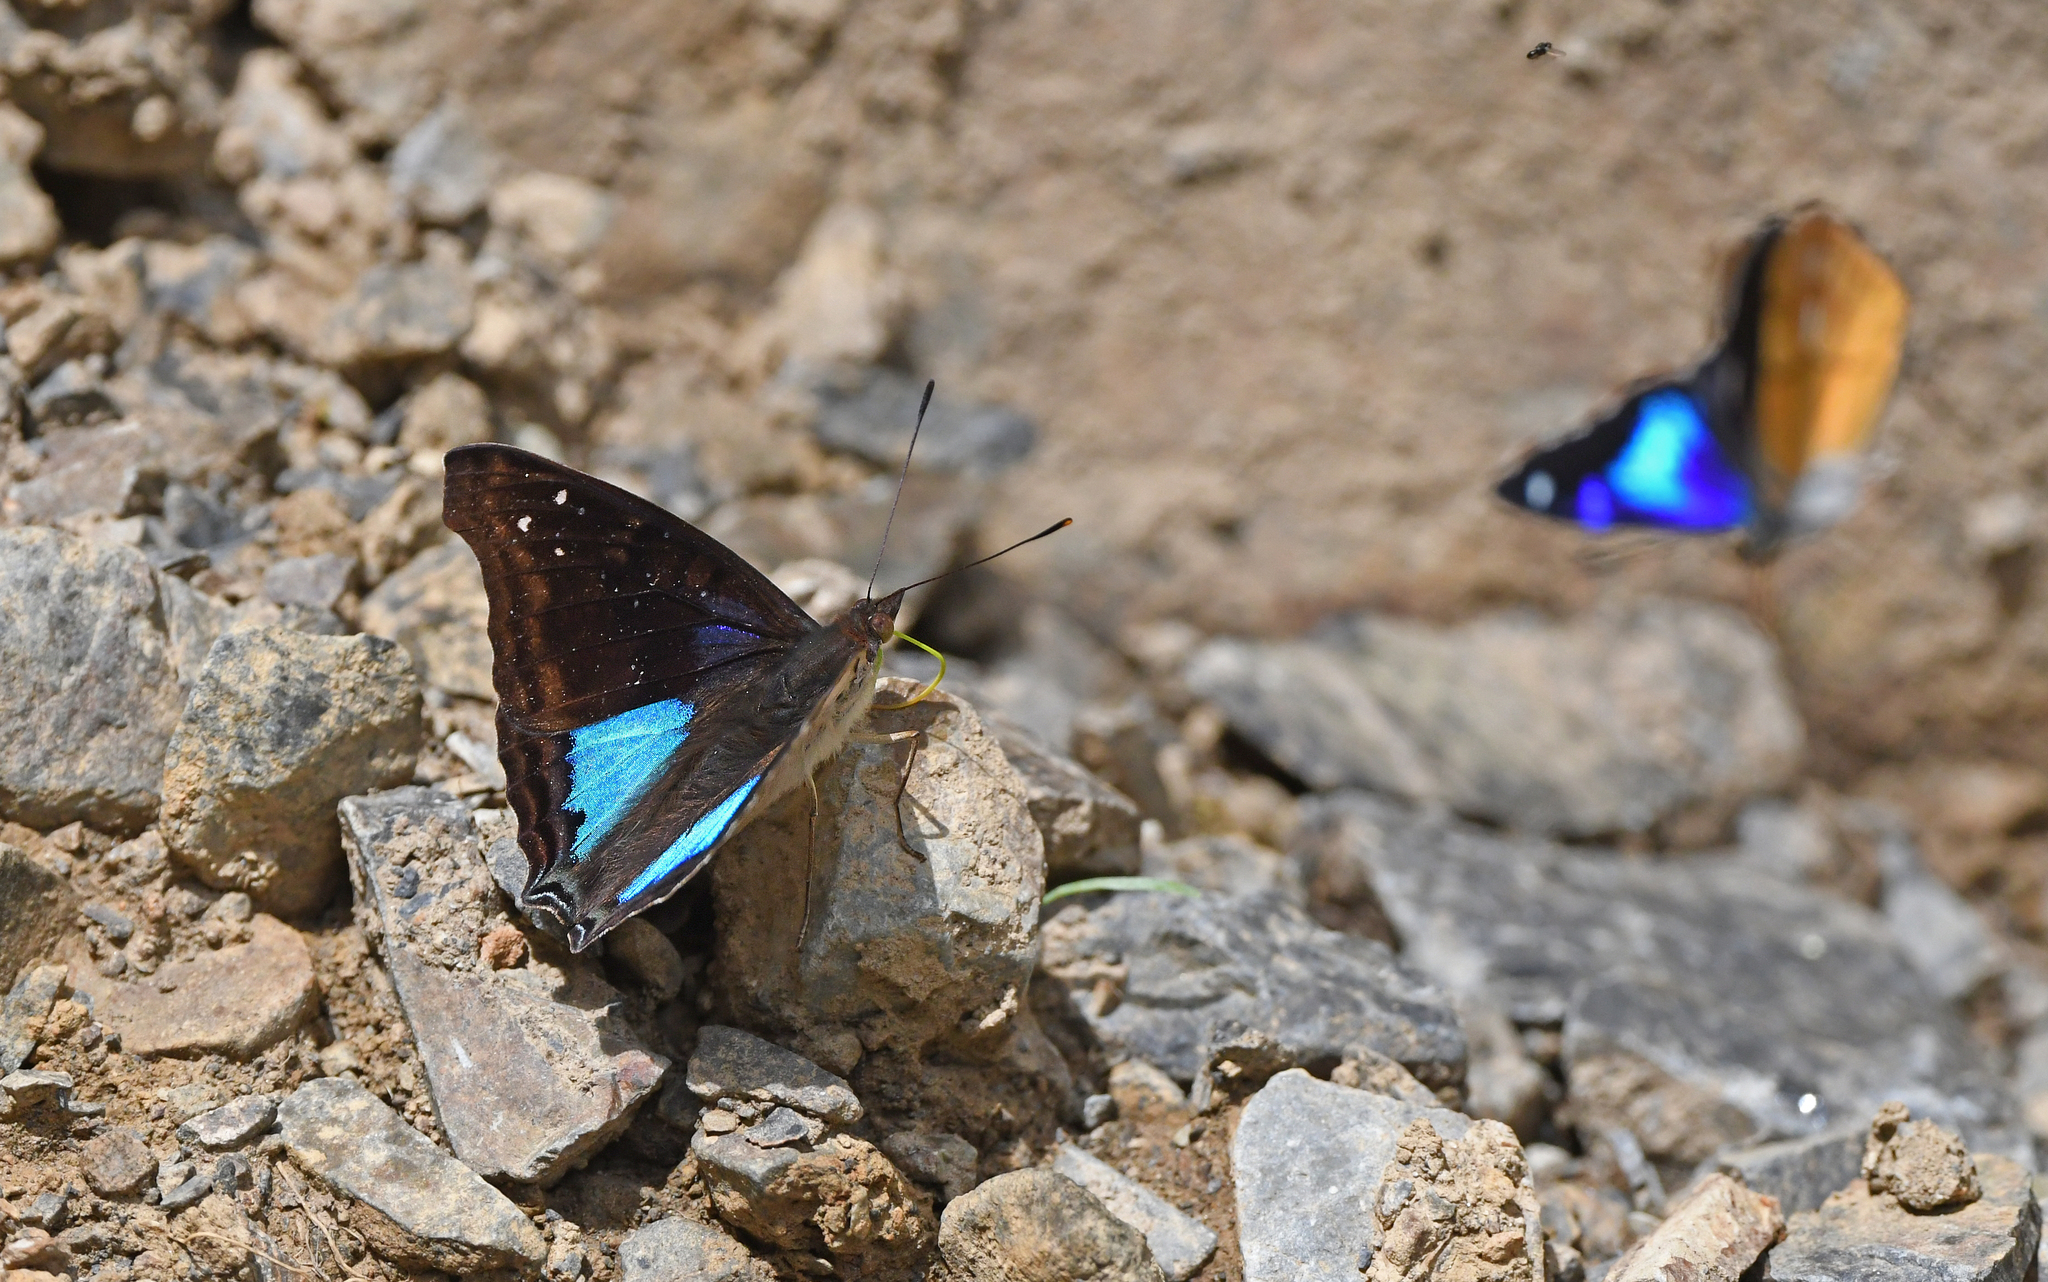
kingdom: Animalia
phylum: Arthropoda
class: Insecta
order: Lepidoptera
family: Nymphalidae
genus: Doxocopa
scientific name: Doxocopa cyane
